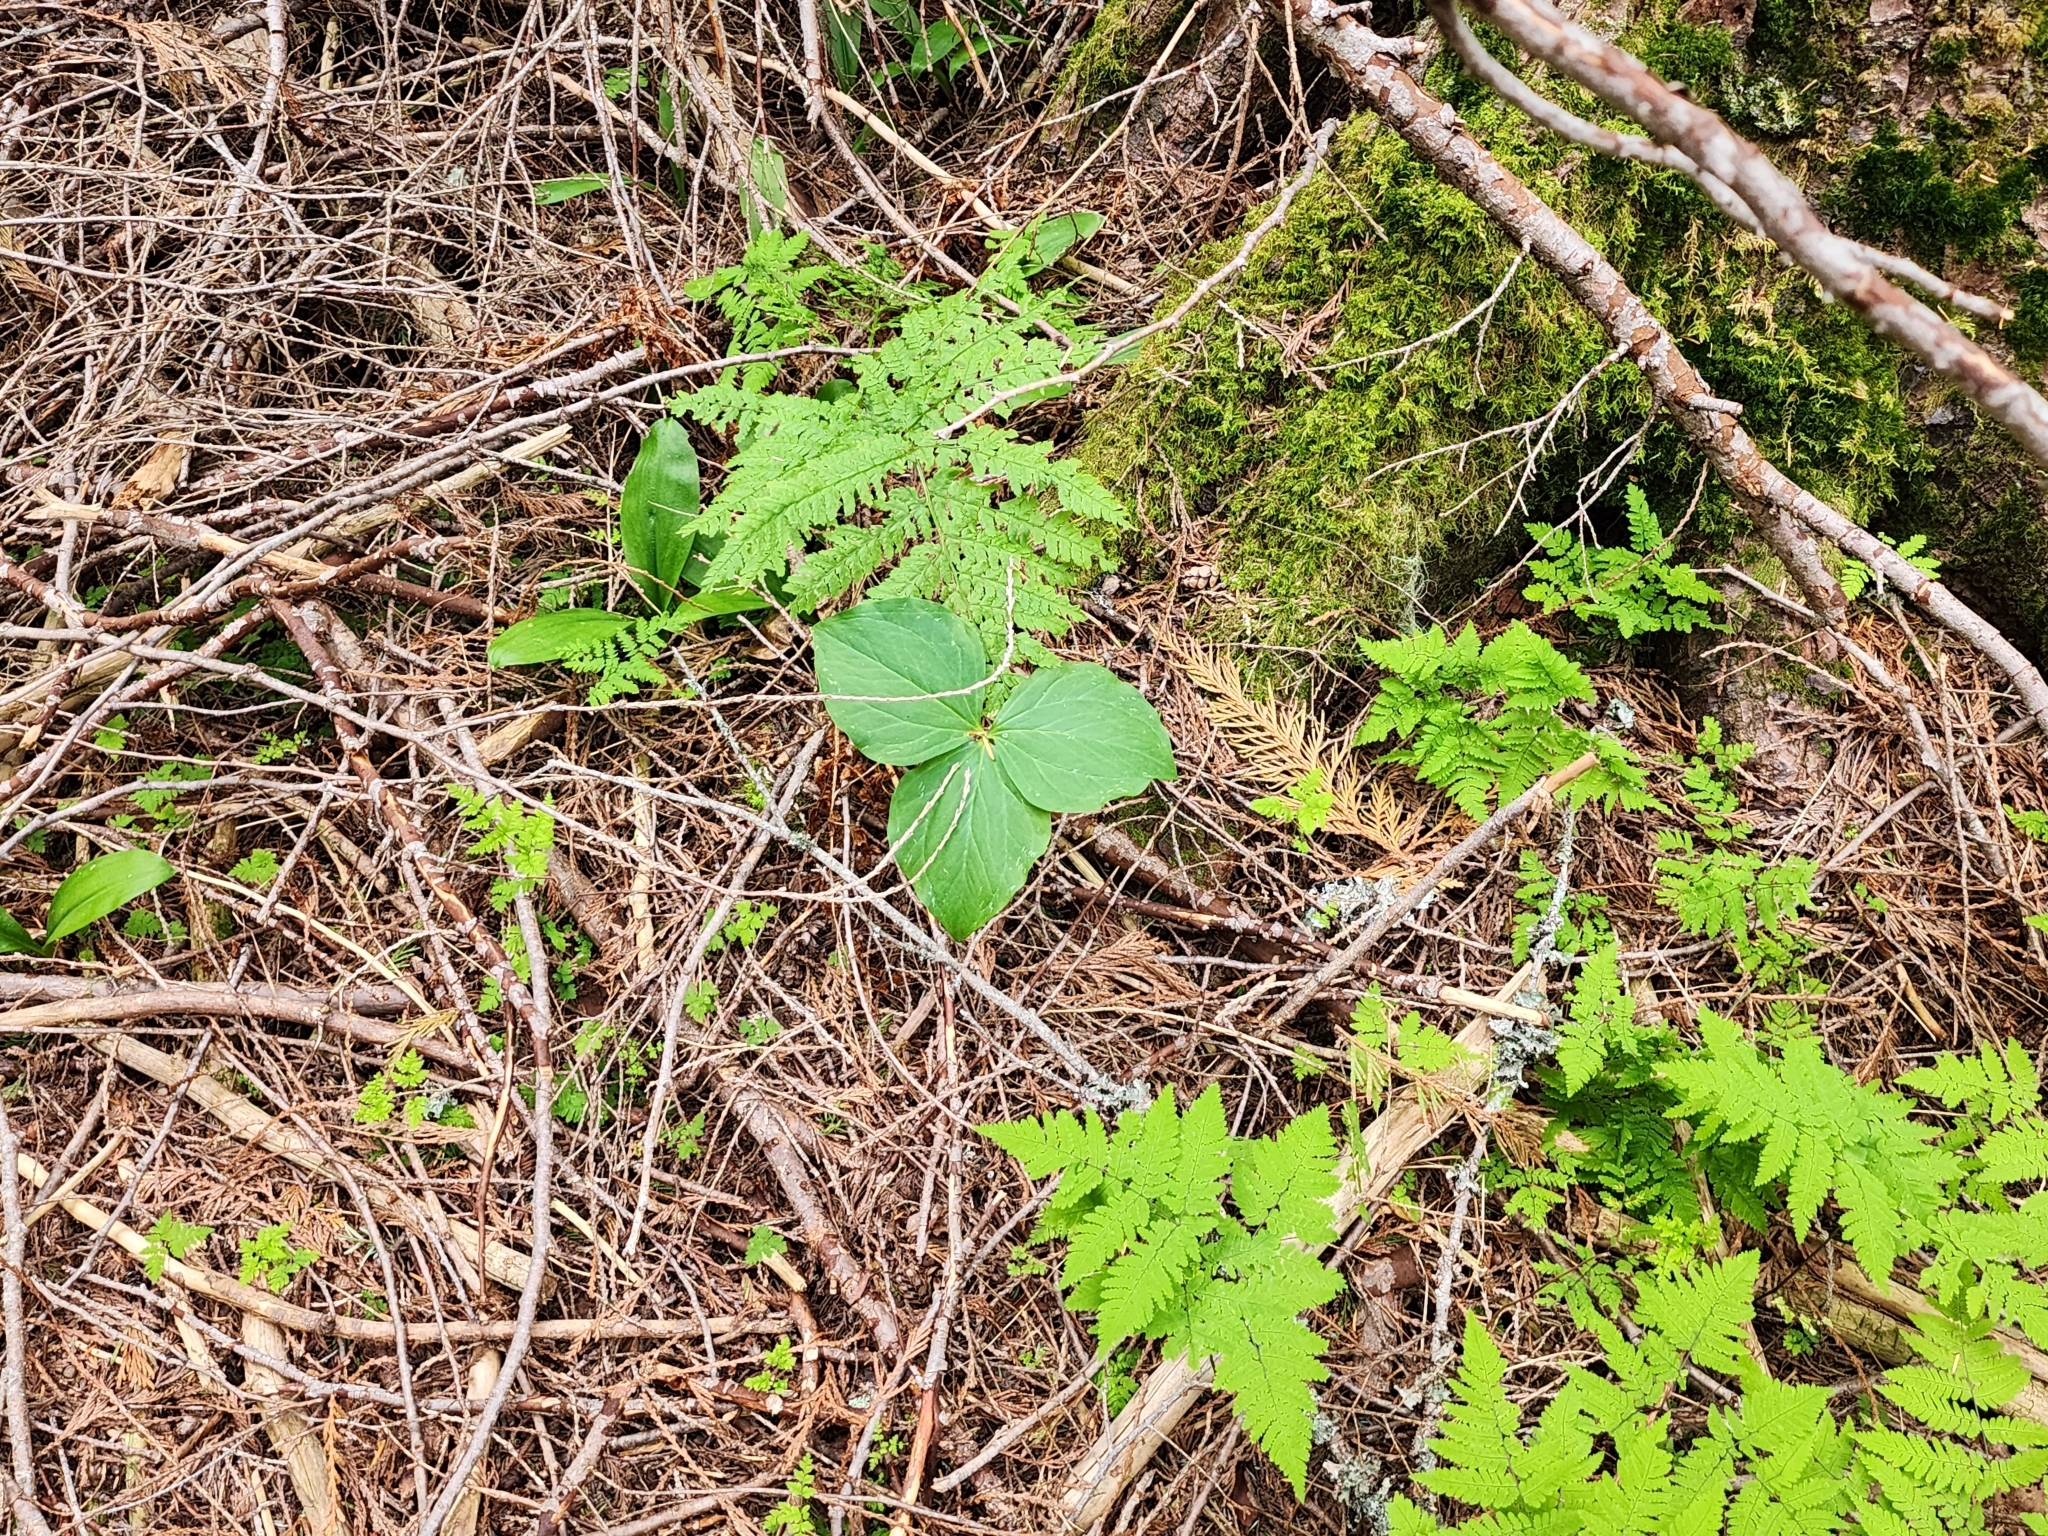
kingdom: Plantae
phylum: Tracheophyta
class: Liliopsida
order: Liliales
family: Melanthiaceae
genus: Trillium
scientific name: Trillium ovatum
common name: Pacific trillium
